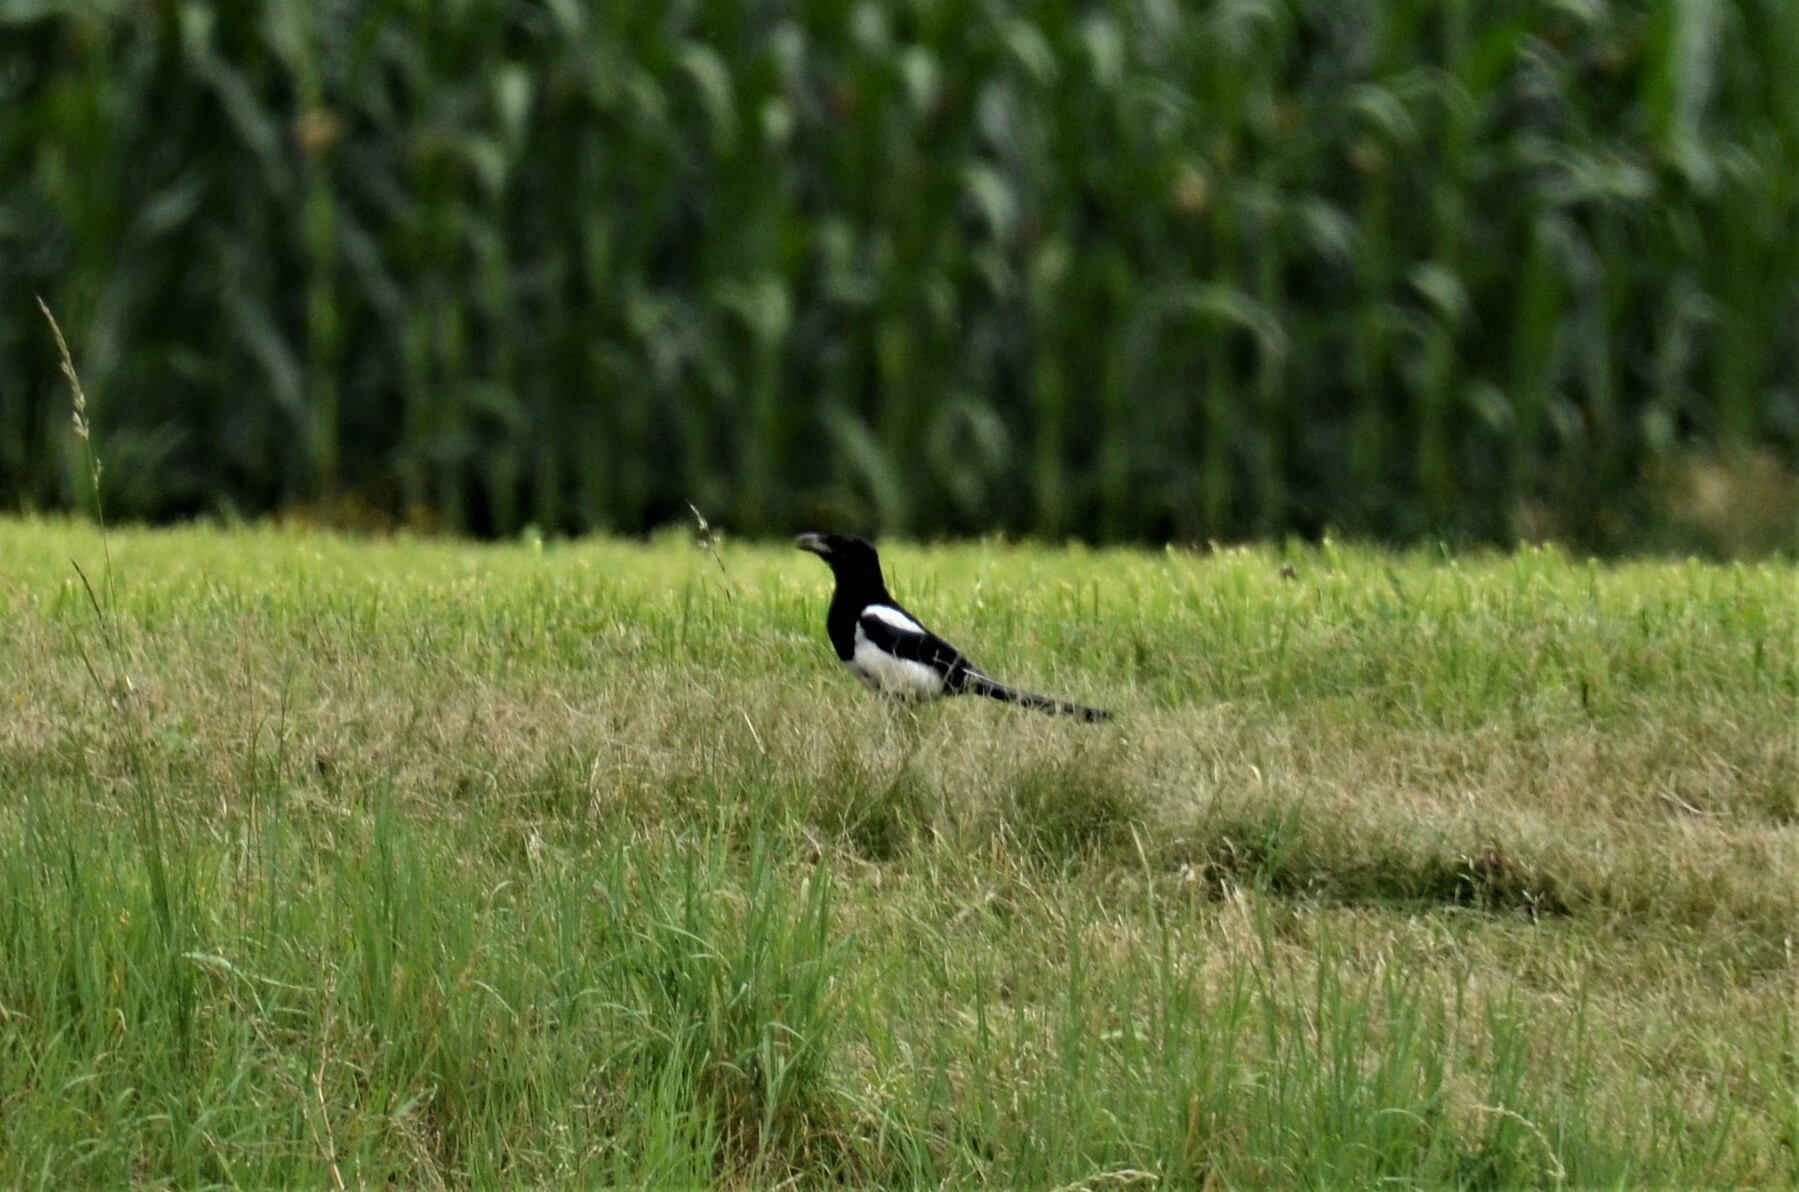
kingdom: Animalia
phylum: Chordata
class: Aves
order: Passeriformes
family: Corvidae
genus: Pica
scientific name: Pica pica
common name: Eurasian magpie
